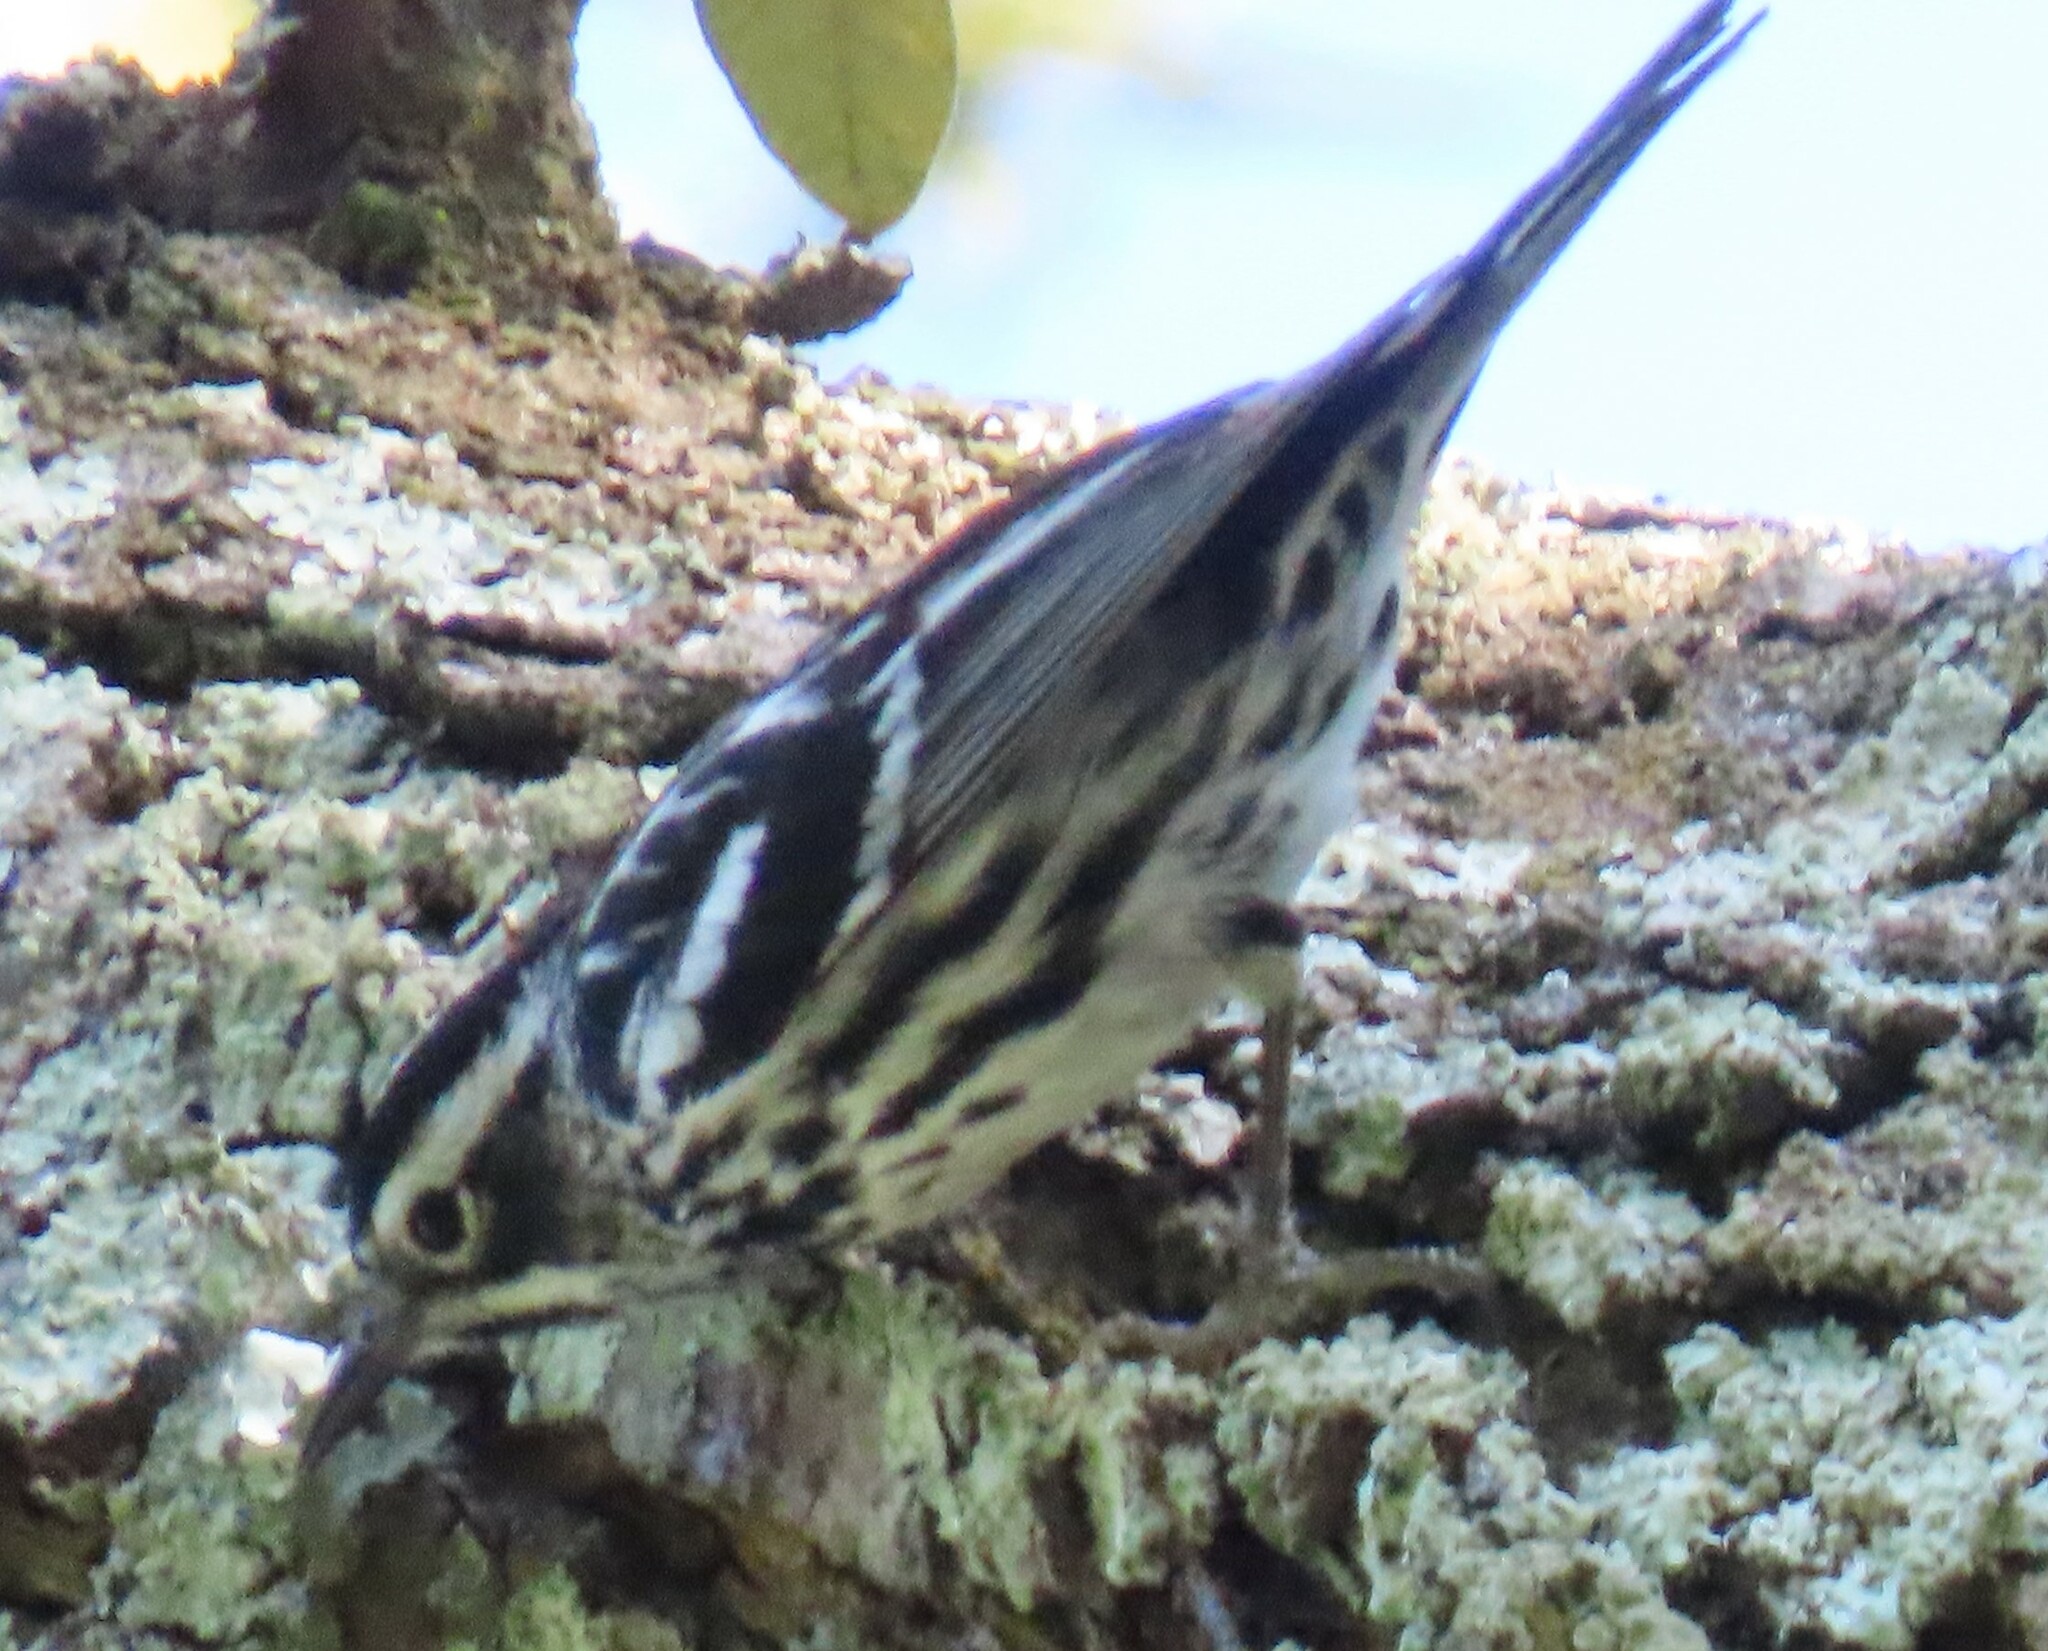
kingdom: Animalia
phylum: Chordata
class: Aves
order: Passeriformes
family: Parulidae
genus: Mniotilta
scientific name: Mniotilta varia
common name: Black-and-white warbler
